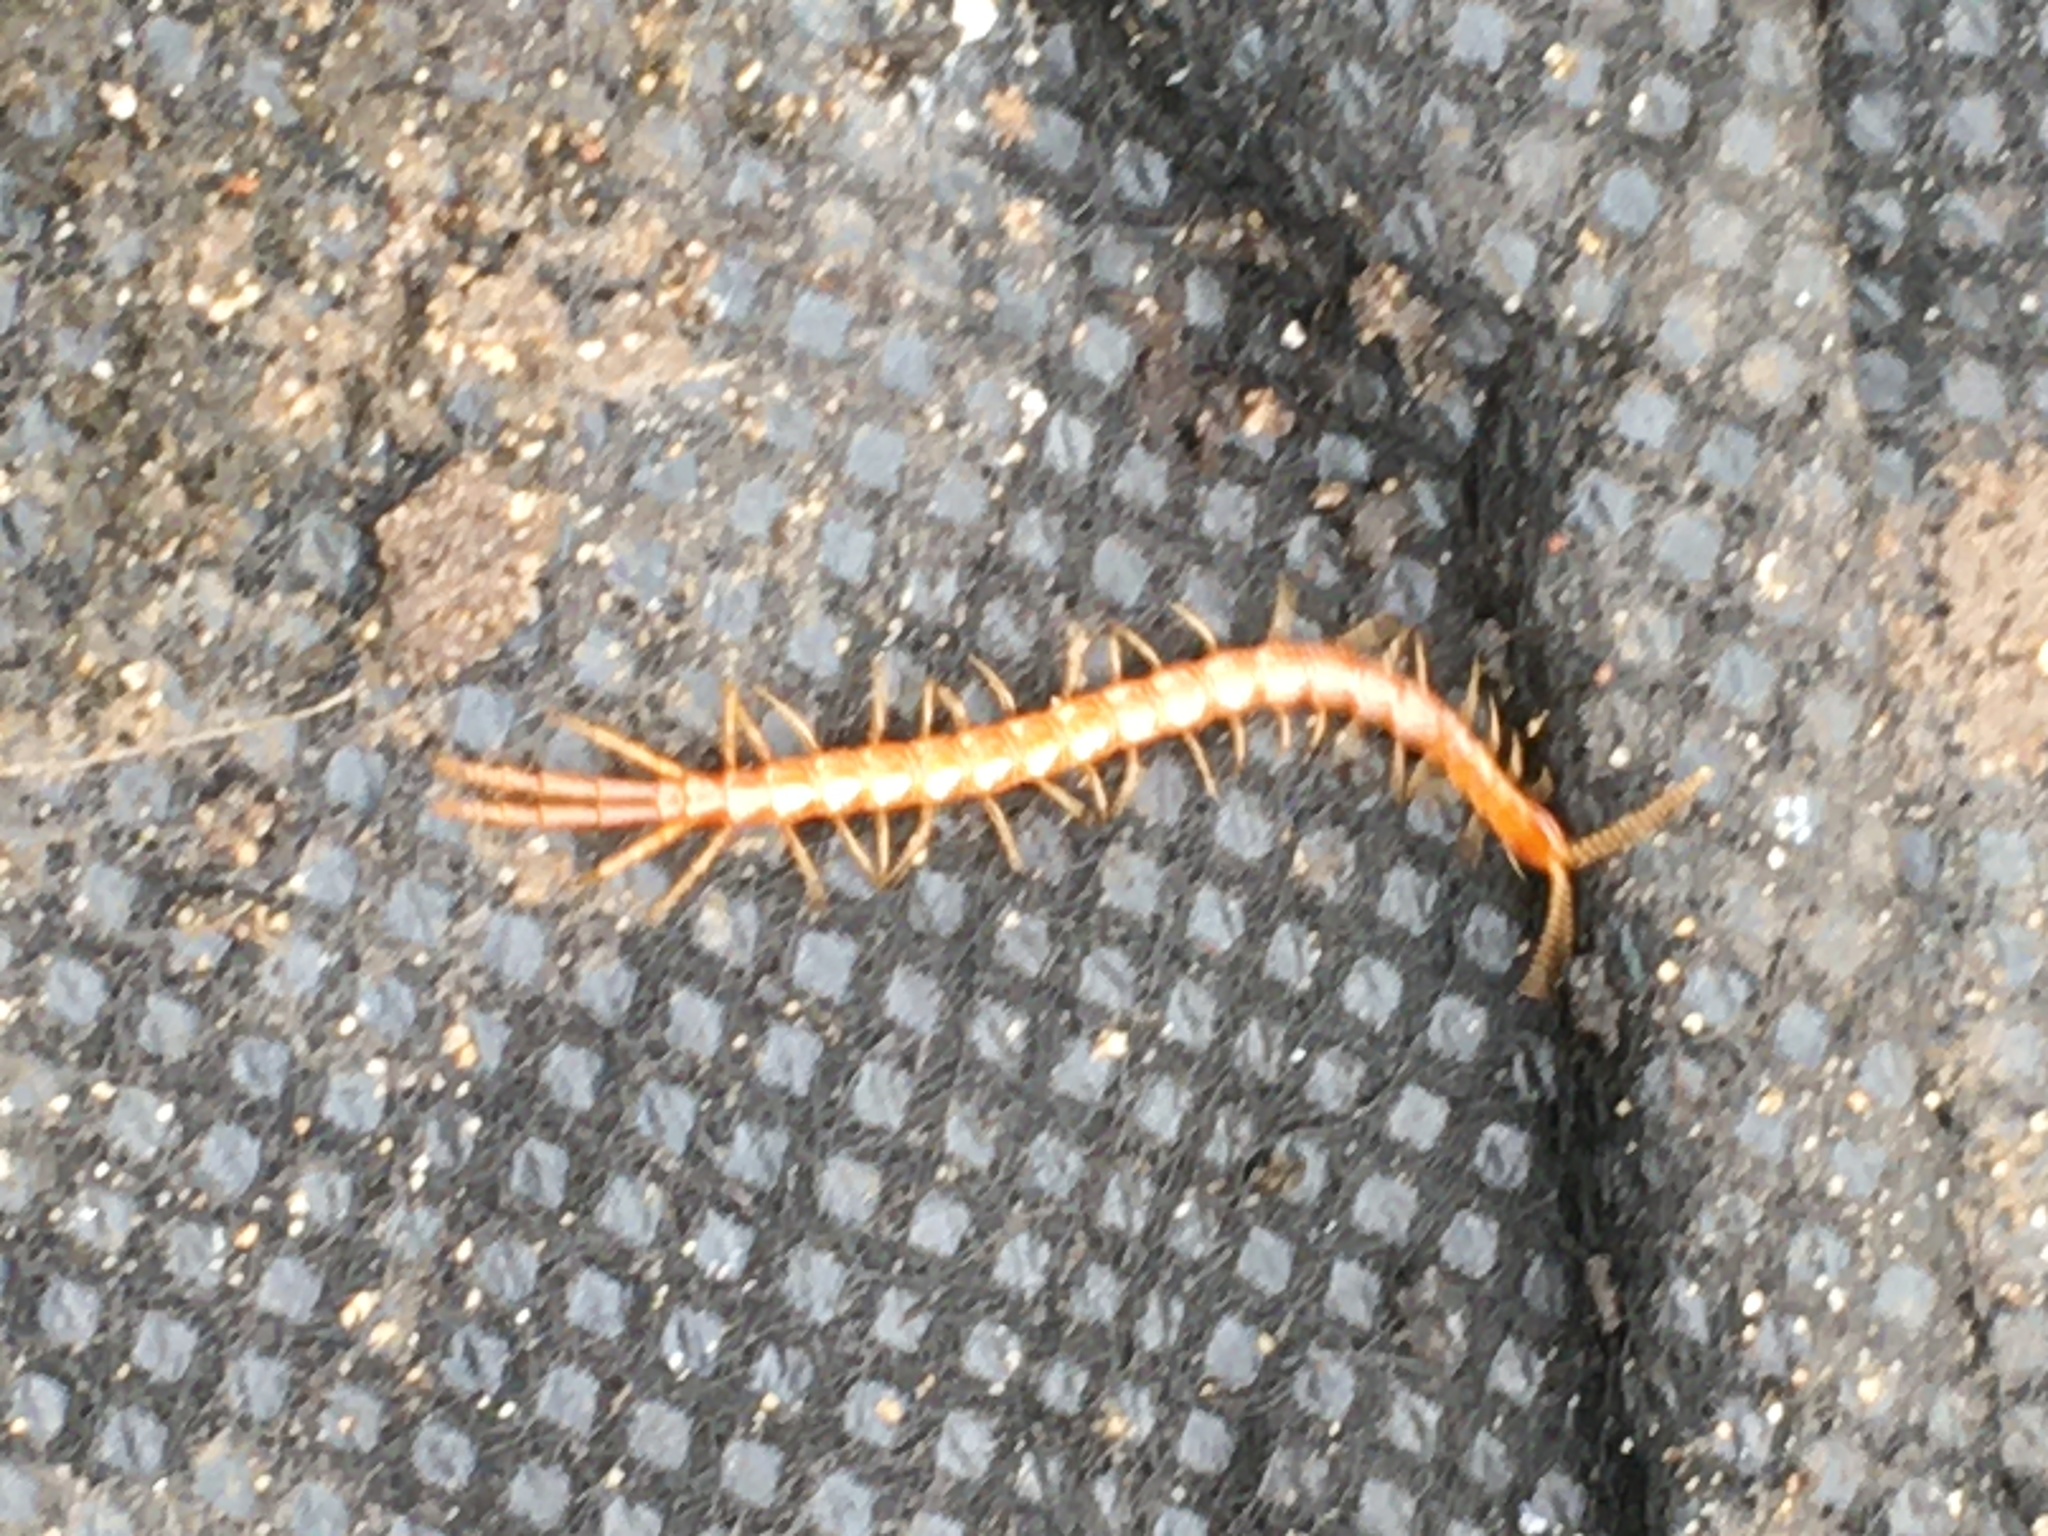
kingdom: Animalia
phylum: Arthropoda
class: Chilopoda
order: Scolopendromorpha
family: Cryptopidae
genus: Cryptops
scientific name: Cryptops
